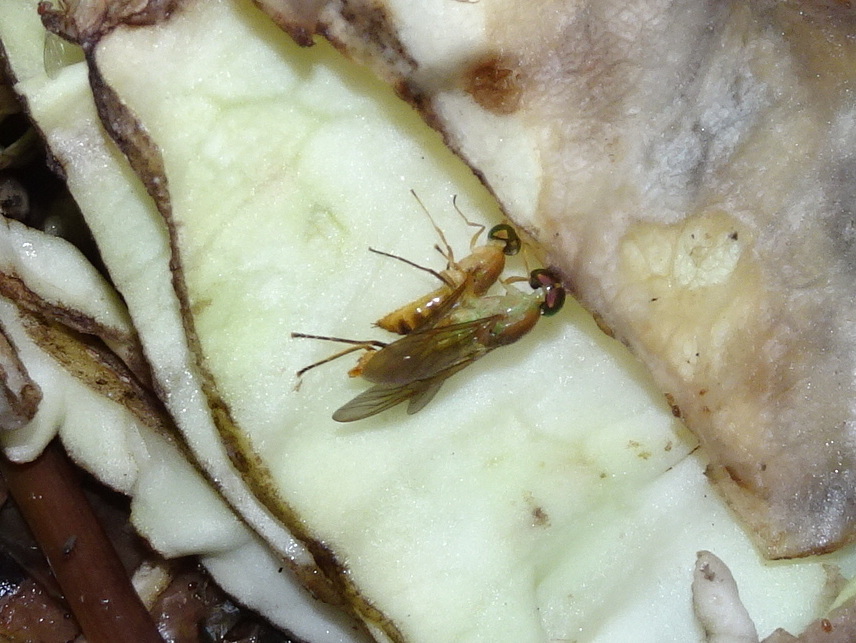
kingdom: Animalia
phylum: Arthropoda
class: Insecta
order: Diptera
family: Stratiomyidae
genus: Ptecticus
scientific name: Ptecticus trivittatus
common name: Compost fly
